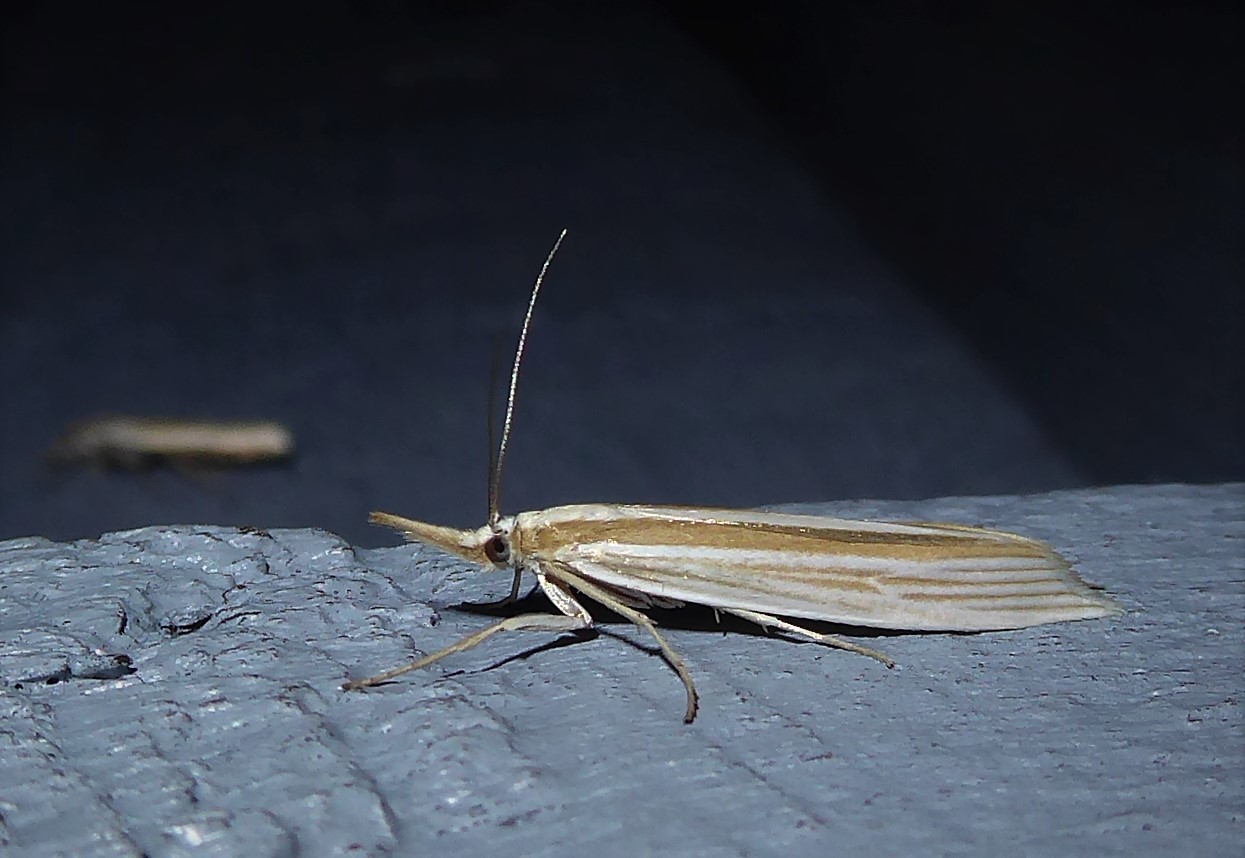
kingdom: Animalia
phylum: Arthropoda
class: Insecta
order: Lepidoptera
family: Crambidae
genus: Orocrambus
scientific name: Orocrambus angustipennis
